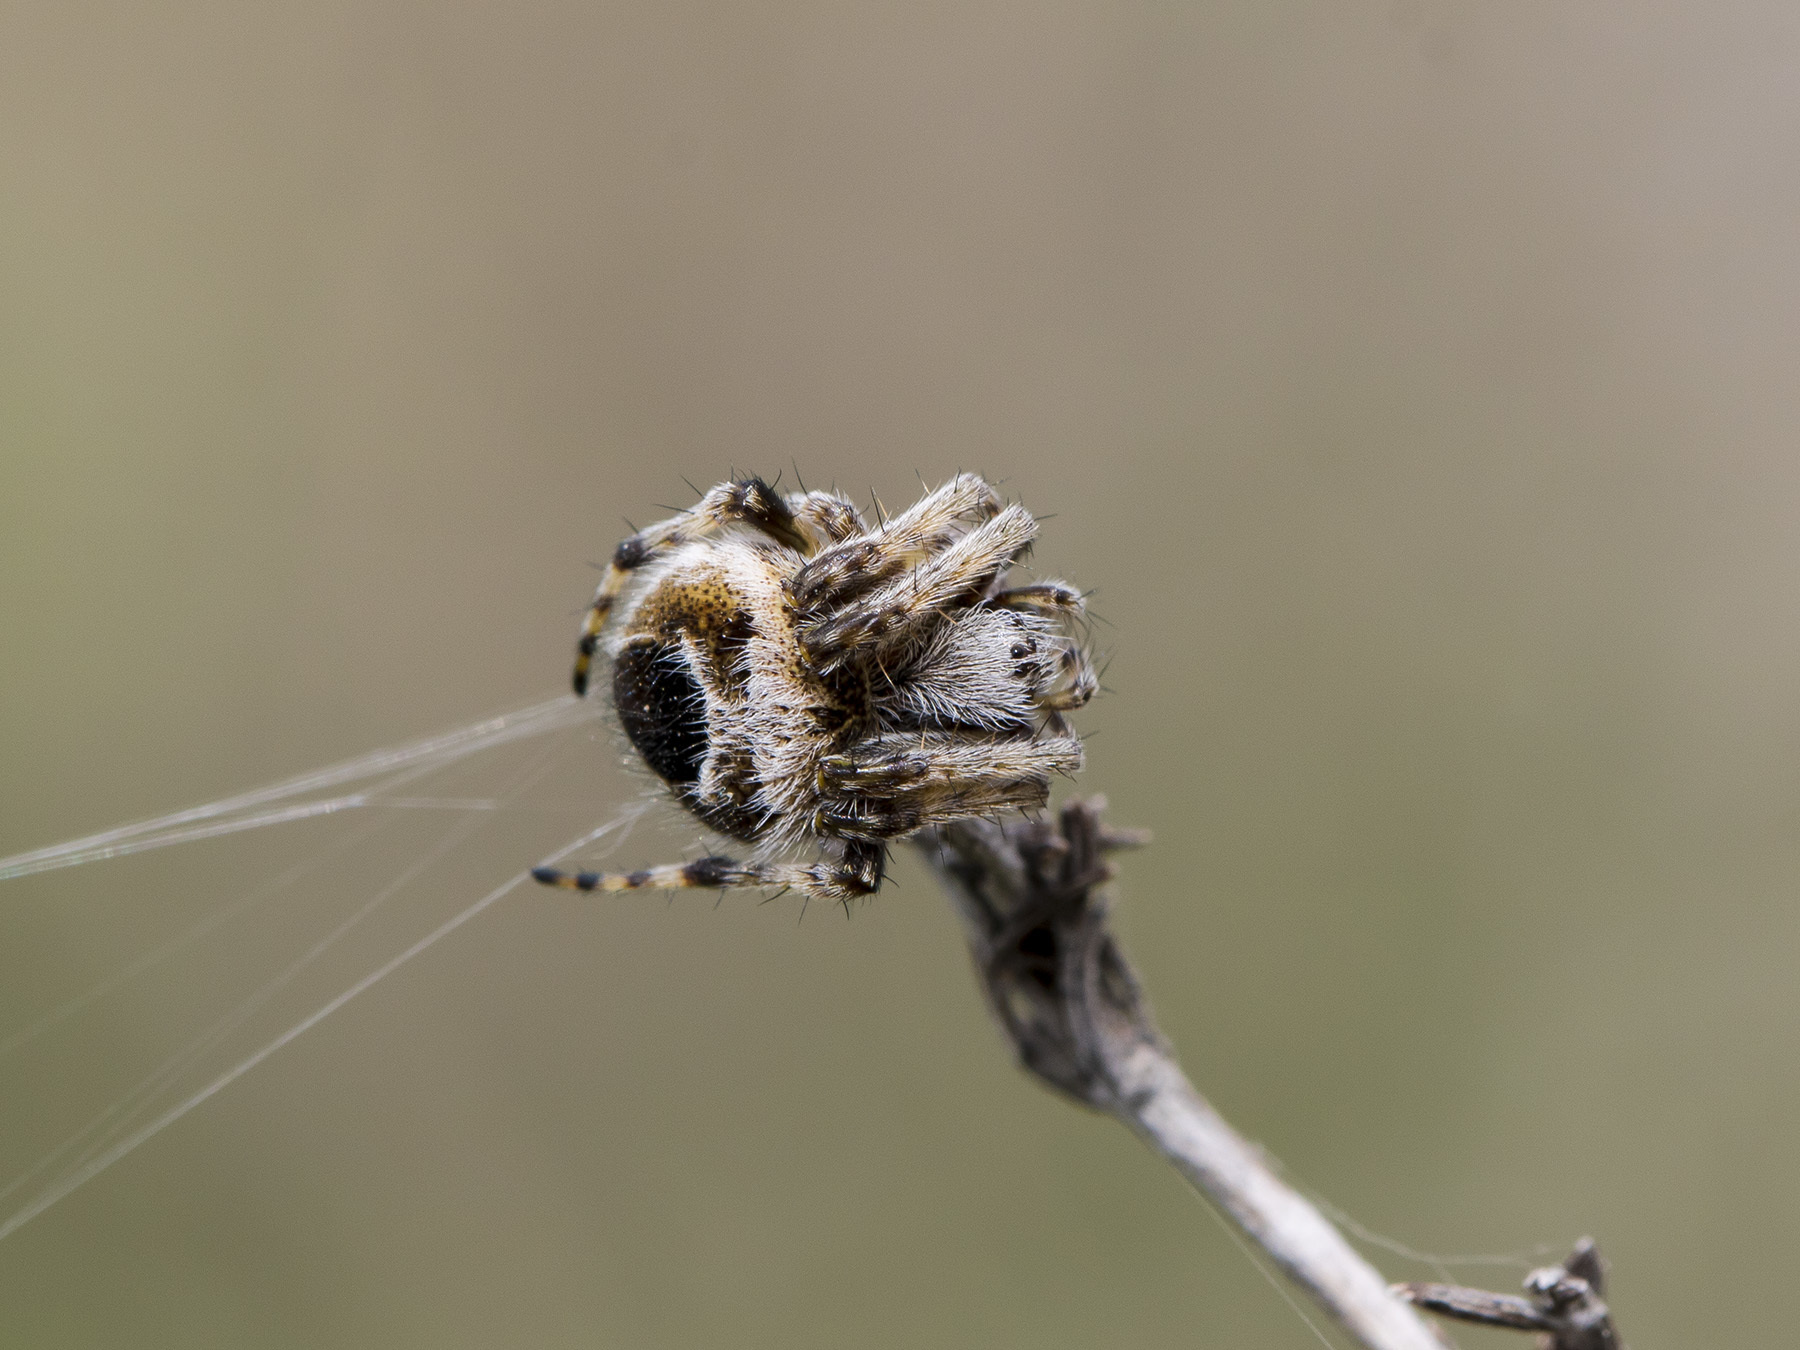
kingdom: Animalia
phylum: Arthropoda
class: Arachnida
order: Araneae
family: Araneidae
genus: Agalenatea
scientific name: Agalenatea redii
